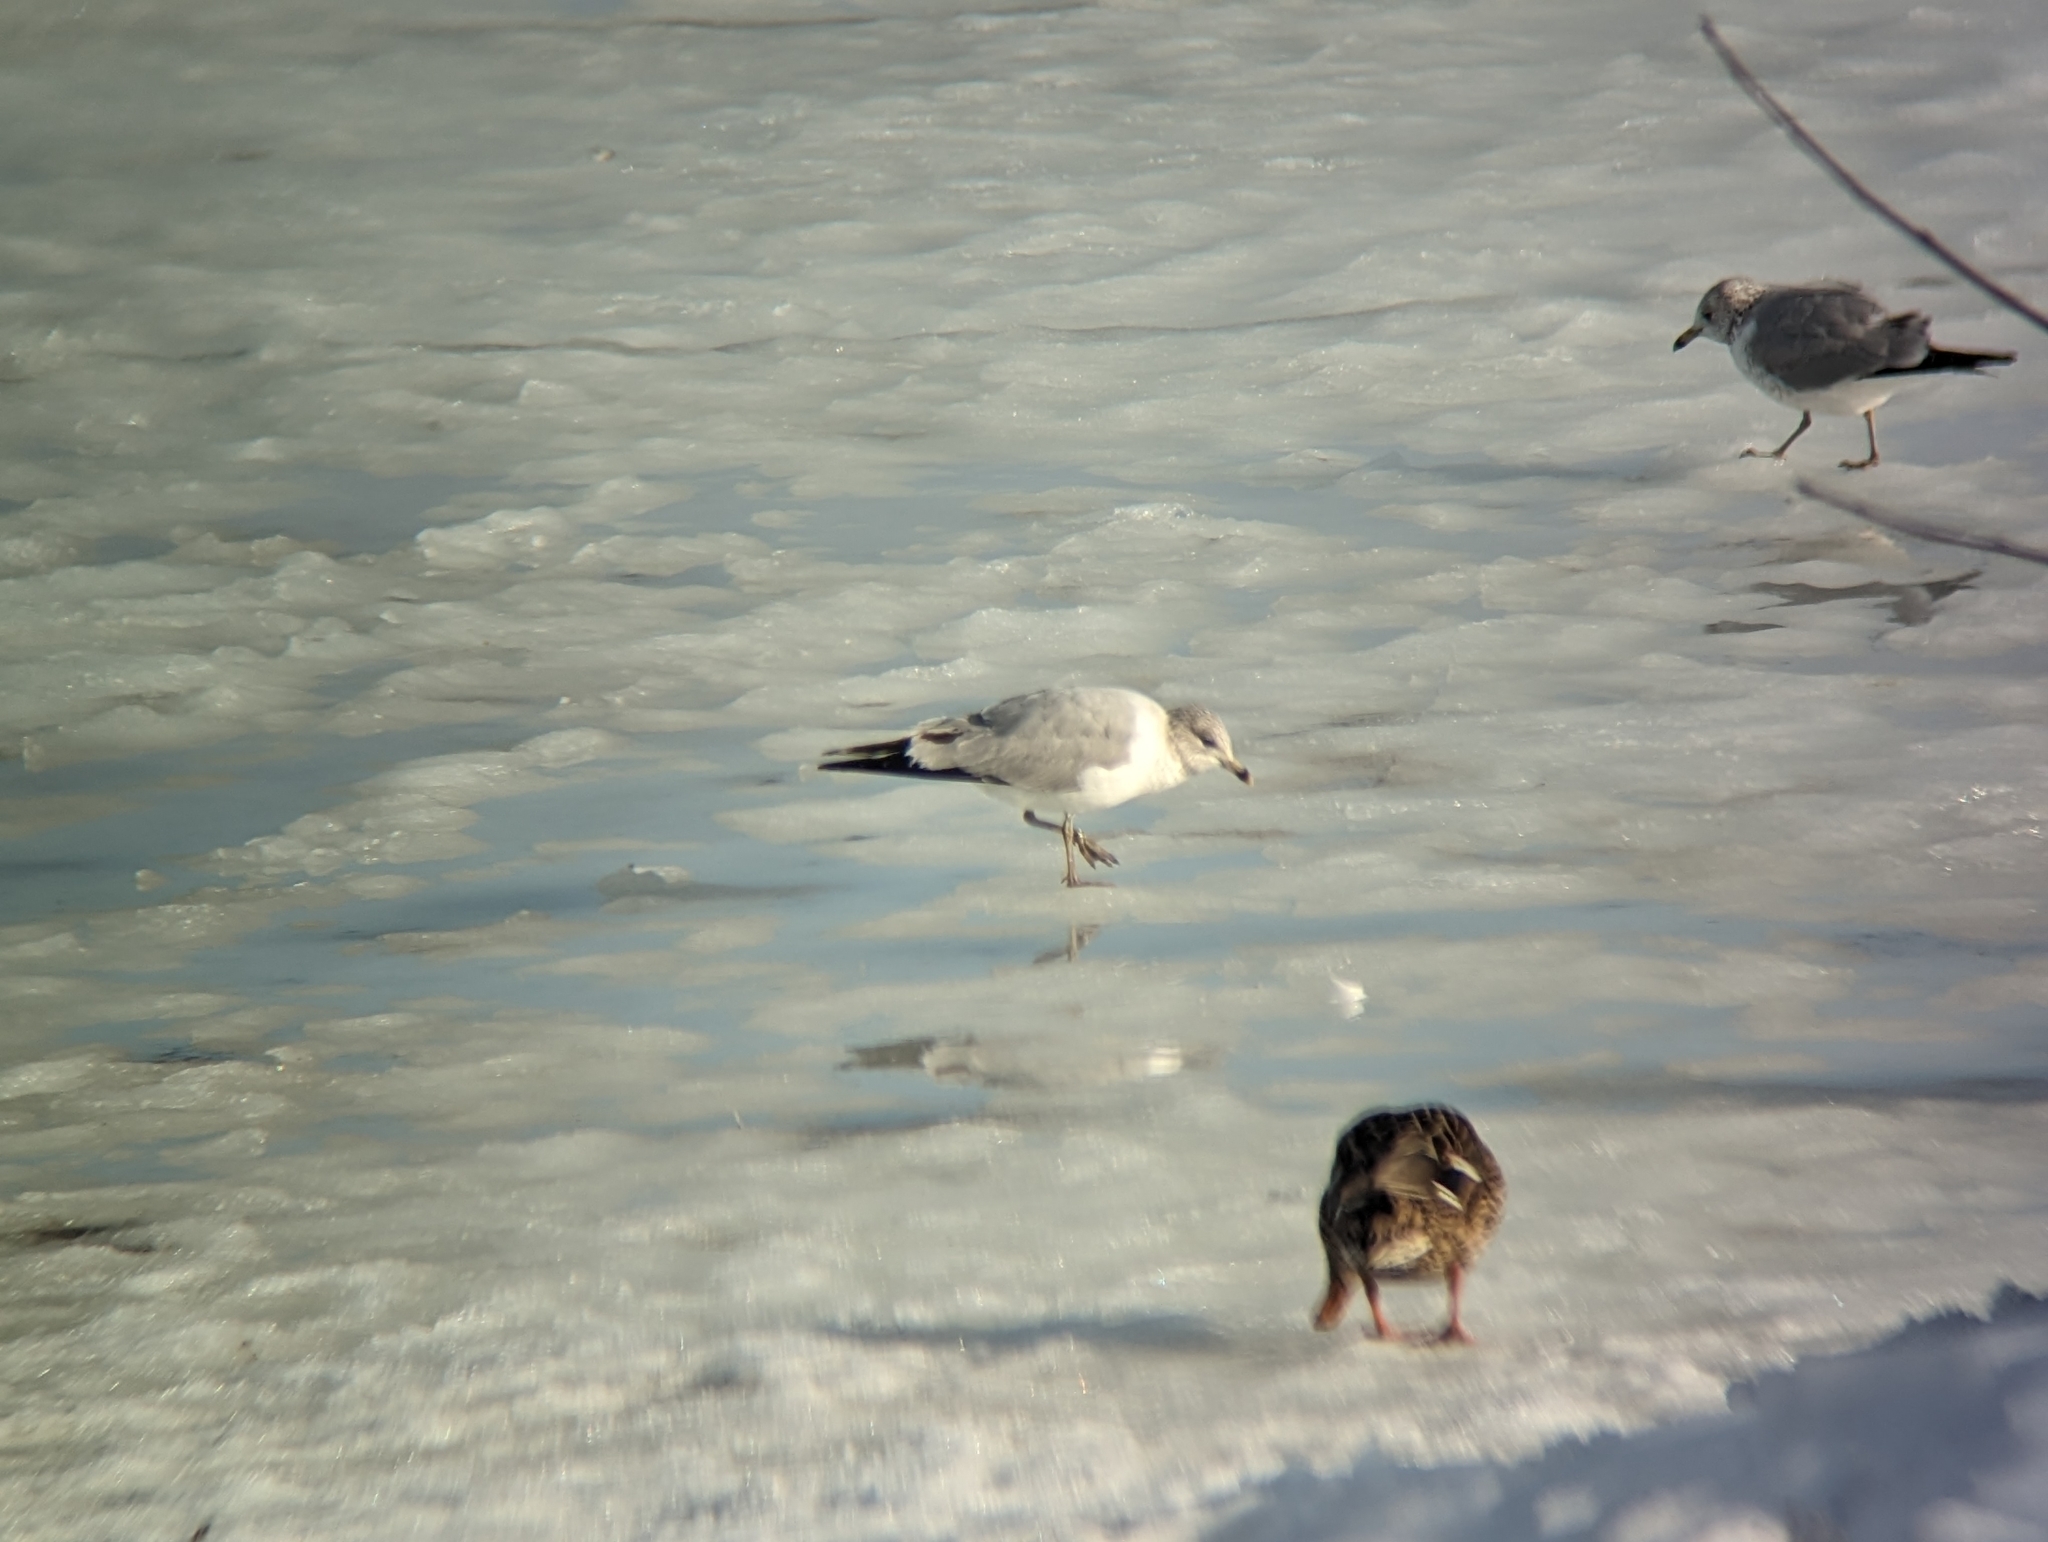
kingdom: Animalia
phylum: Chordata
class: Aves
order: Charadriiformes
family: Laridae
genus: Larus
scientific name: Larus delawarensis
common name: Ring-billed gull
